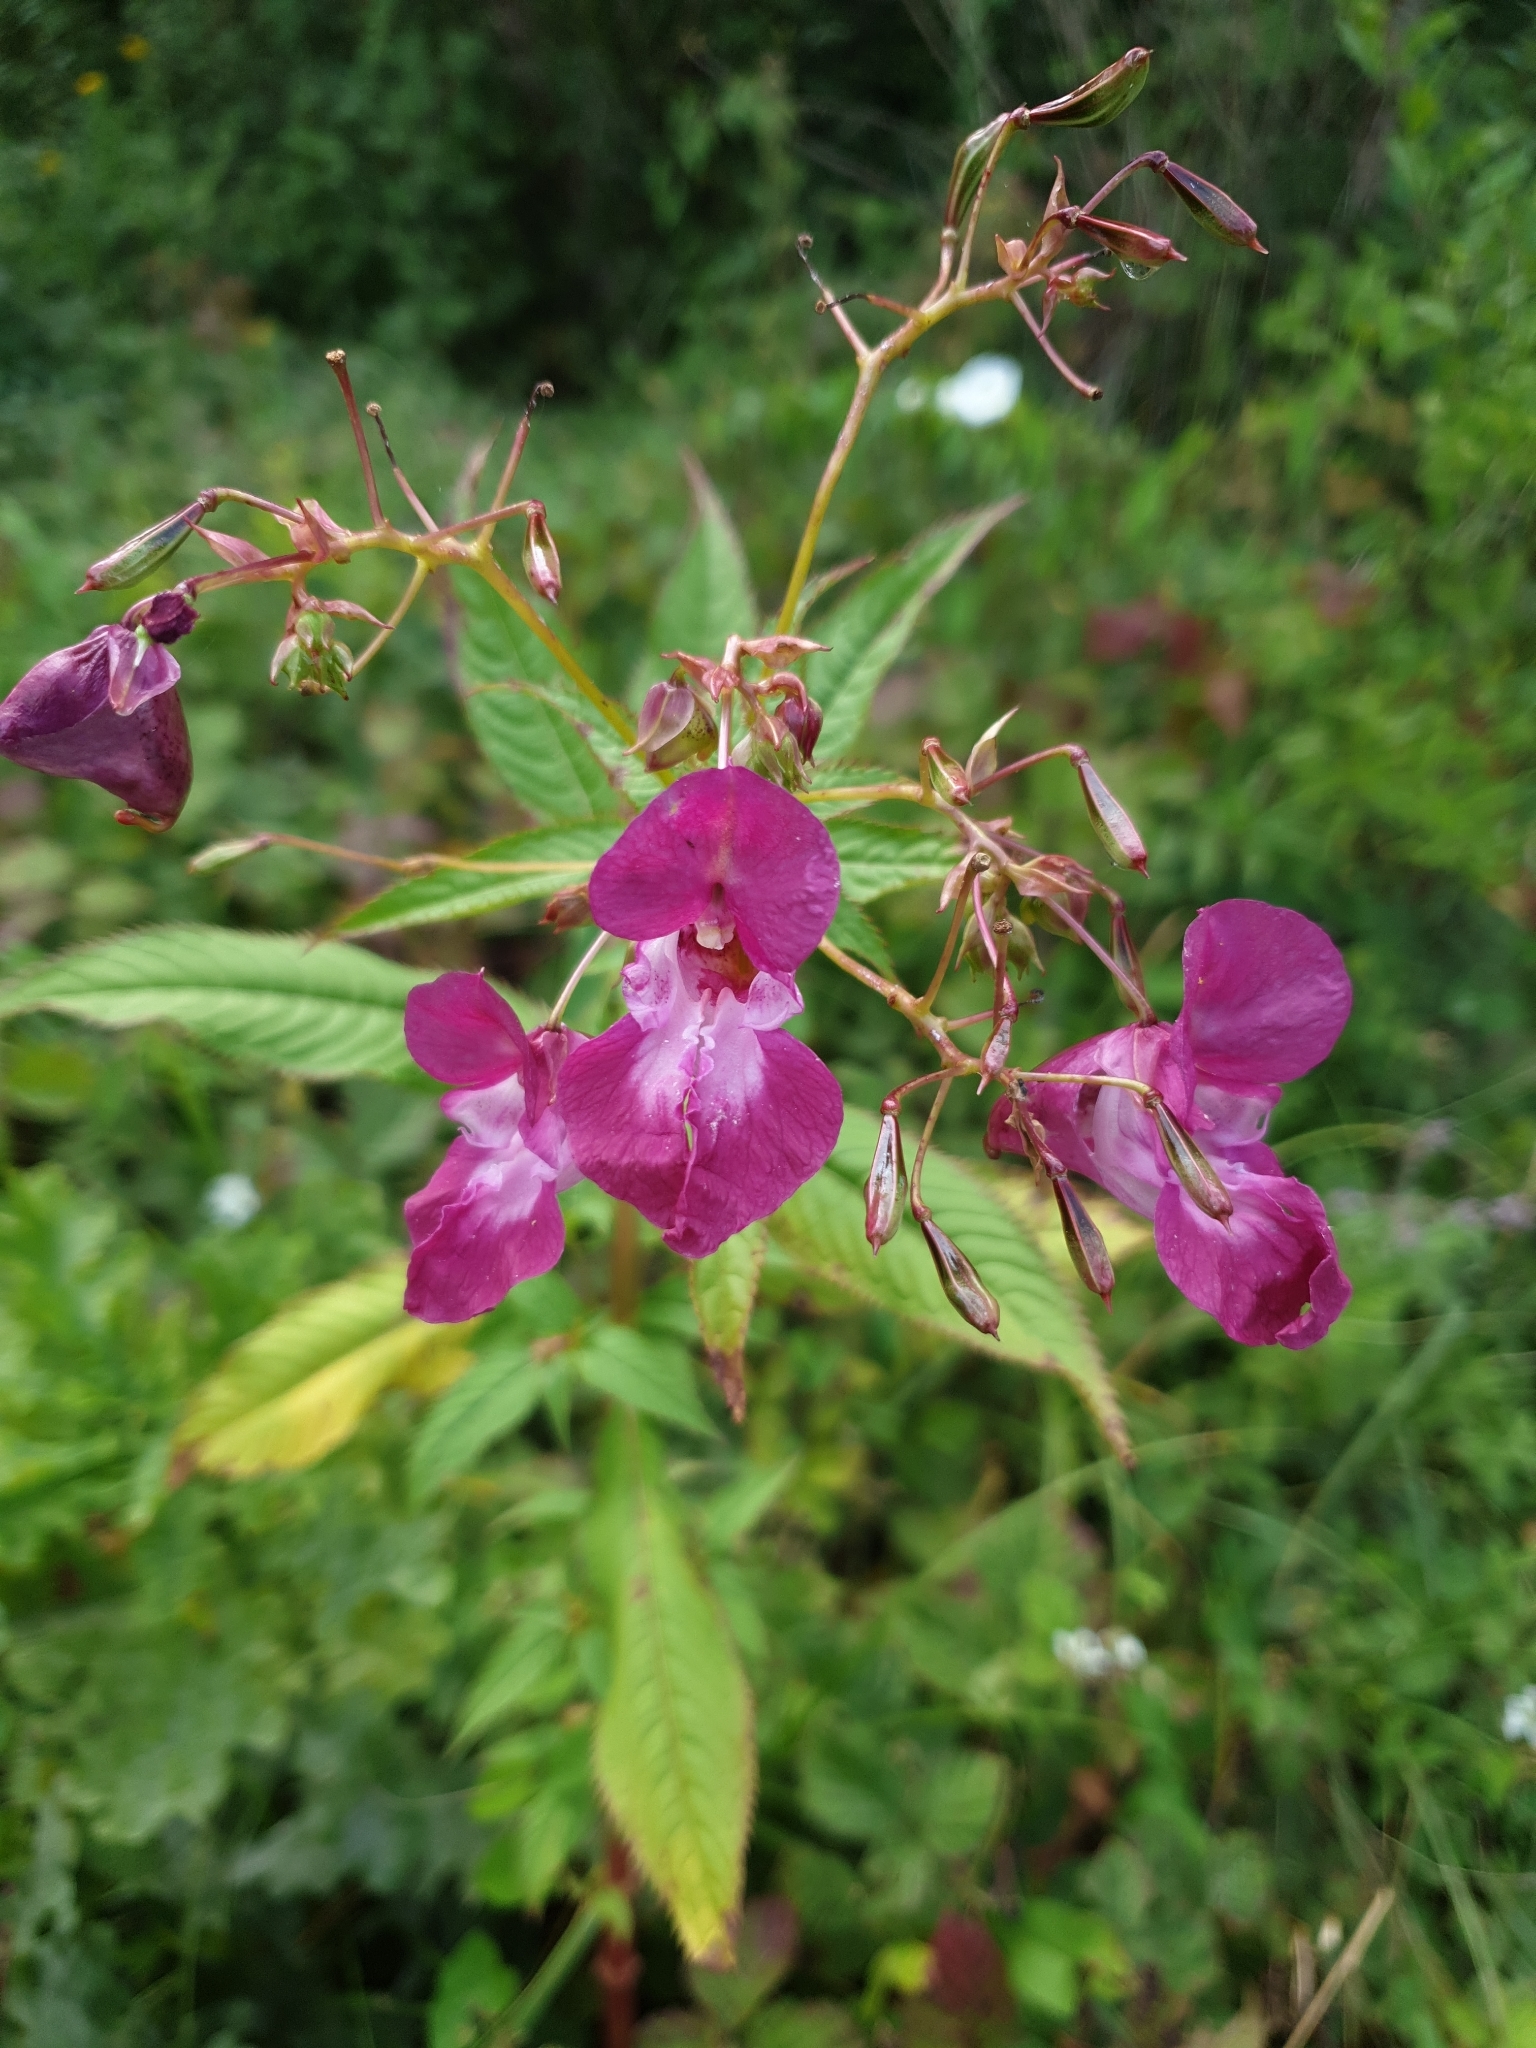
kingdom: Plantae
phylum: Tracheophyta
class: Magnoliopsida
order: Ericales
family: Balsaminaceae
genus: Impatiens
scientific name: Impatiens glandulifera
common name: Himalayan balsam
